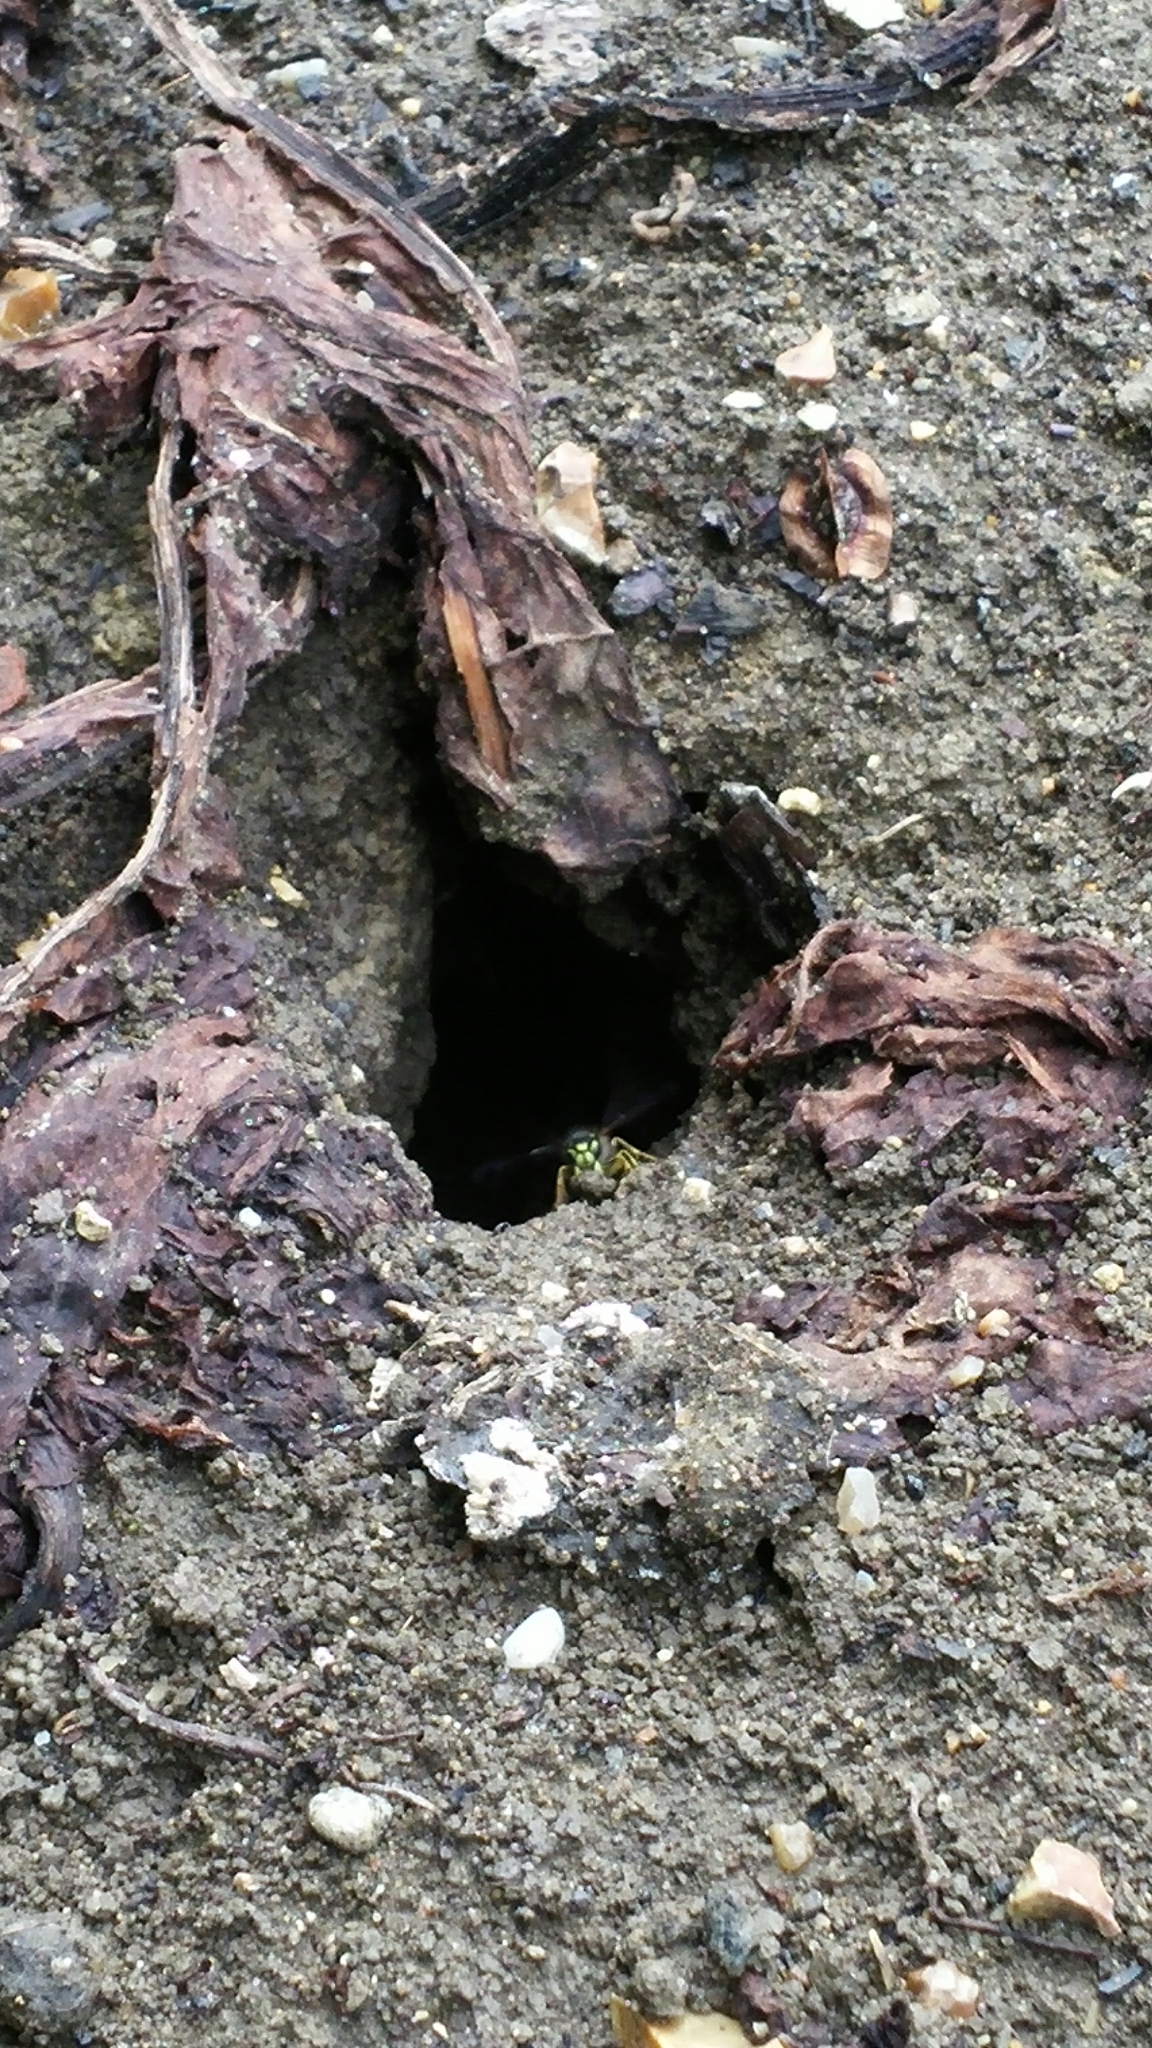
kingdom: Animalia
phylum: Arthropoda
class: Insecta
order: Hymenoptera
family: Vespidae
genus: Vespula
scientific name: Vespula vulgaris
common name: Common wasp
